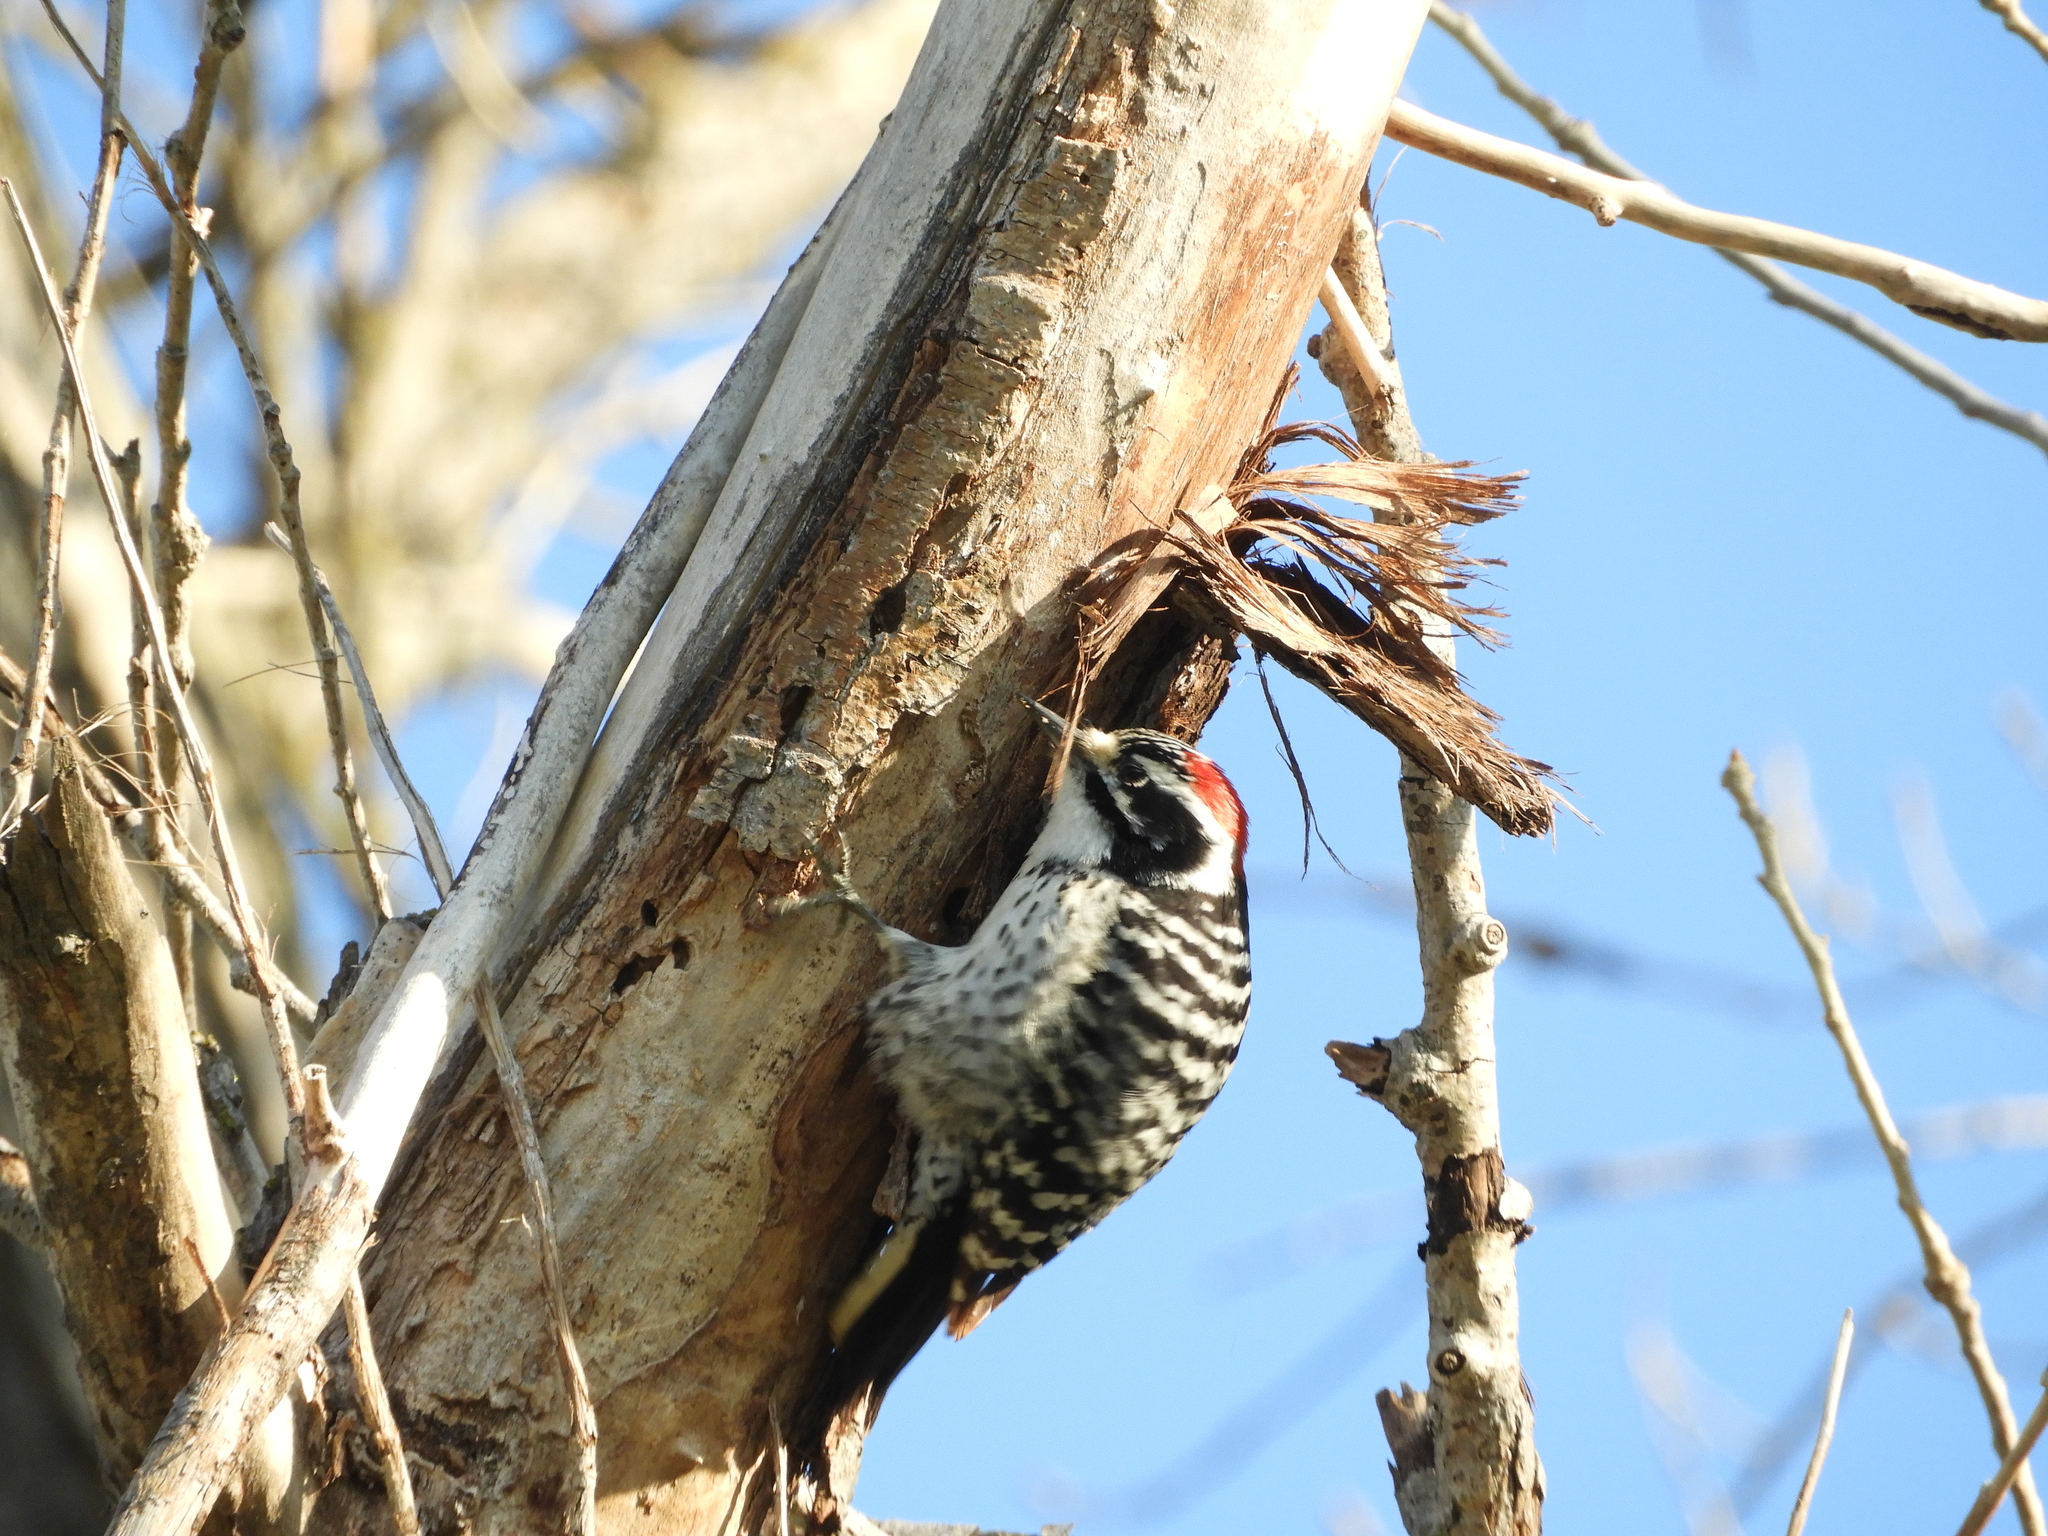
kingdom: Animalia
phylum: Chordata
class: Aves
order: Piciformes
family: Picidae
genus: Dryobates
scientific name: Dryobates nuttallii
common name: Nuttall's woodpecker
